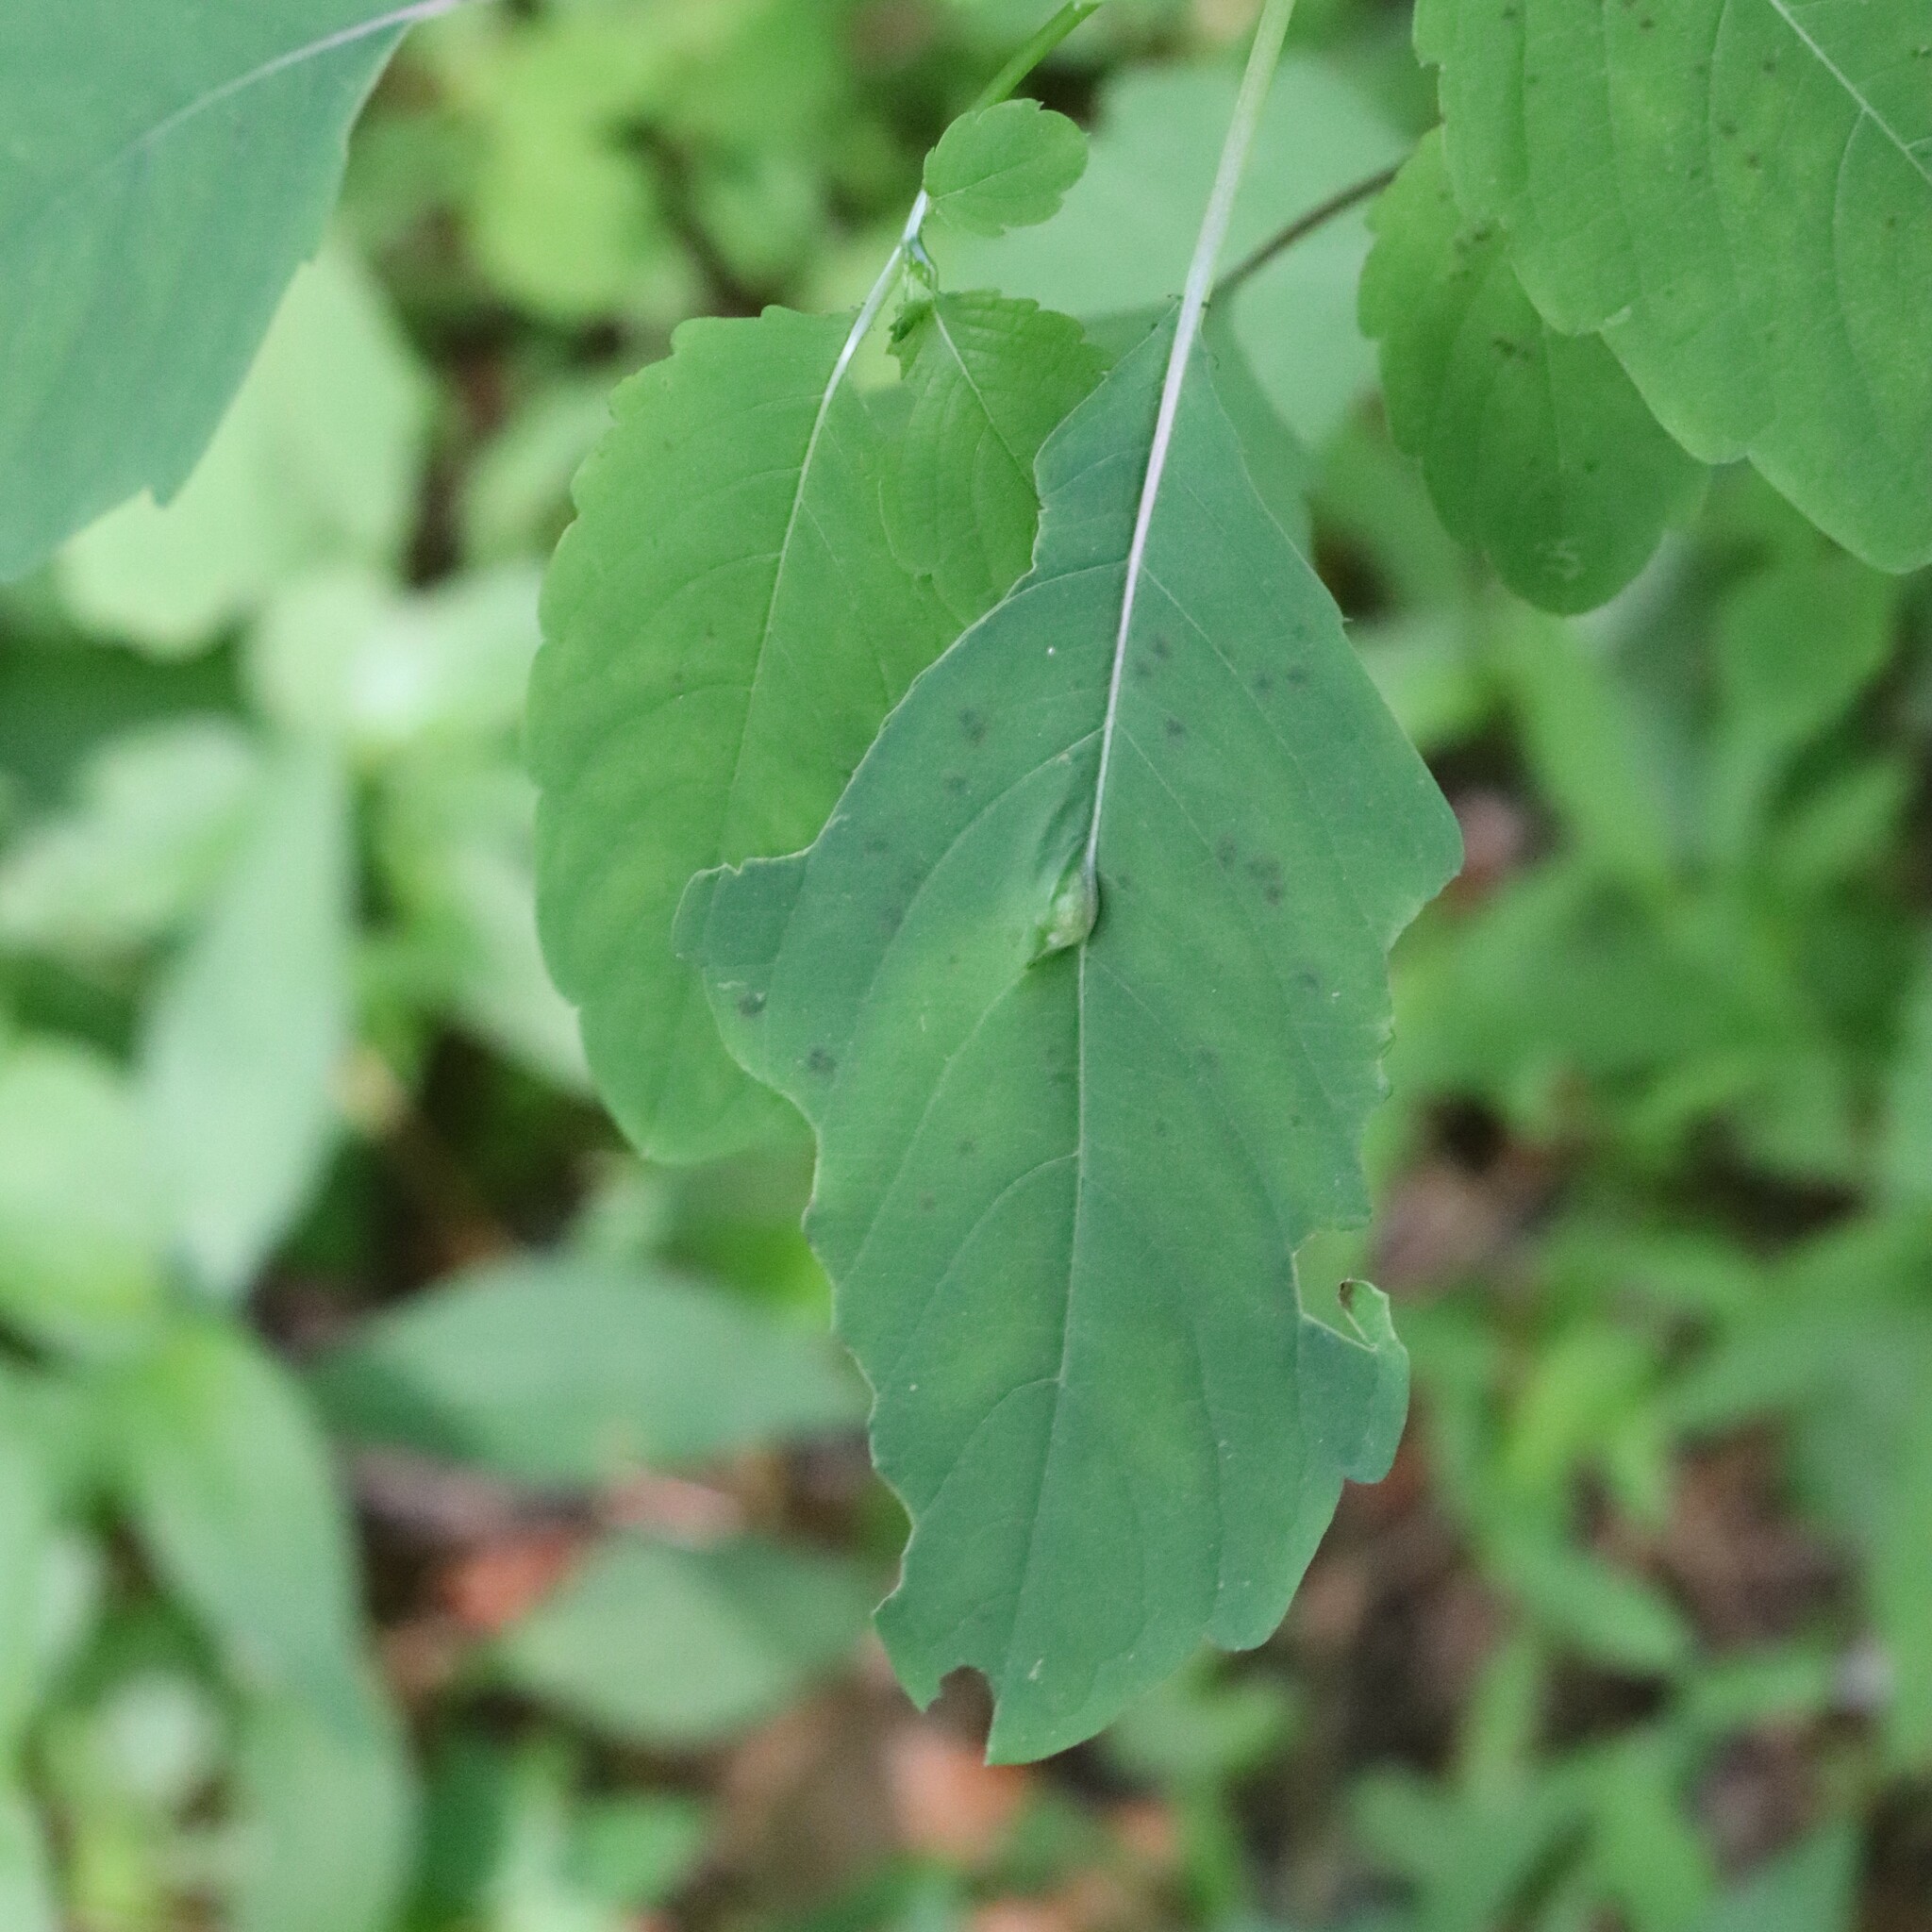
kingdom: Animalia
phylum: Arthropoda
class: Insecta
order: Diptera
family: Cecidomyiidae
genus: Neolasioptera
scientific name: Neolasioptera impatientifolia
